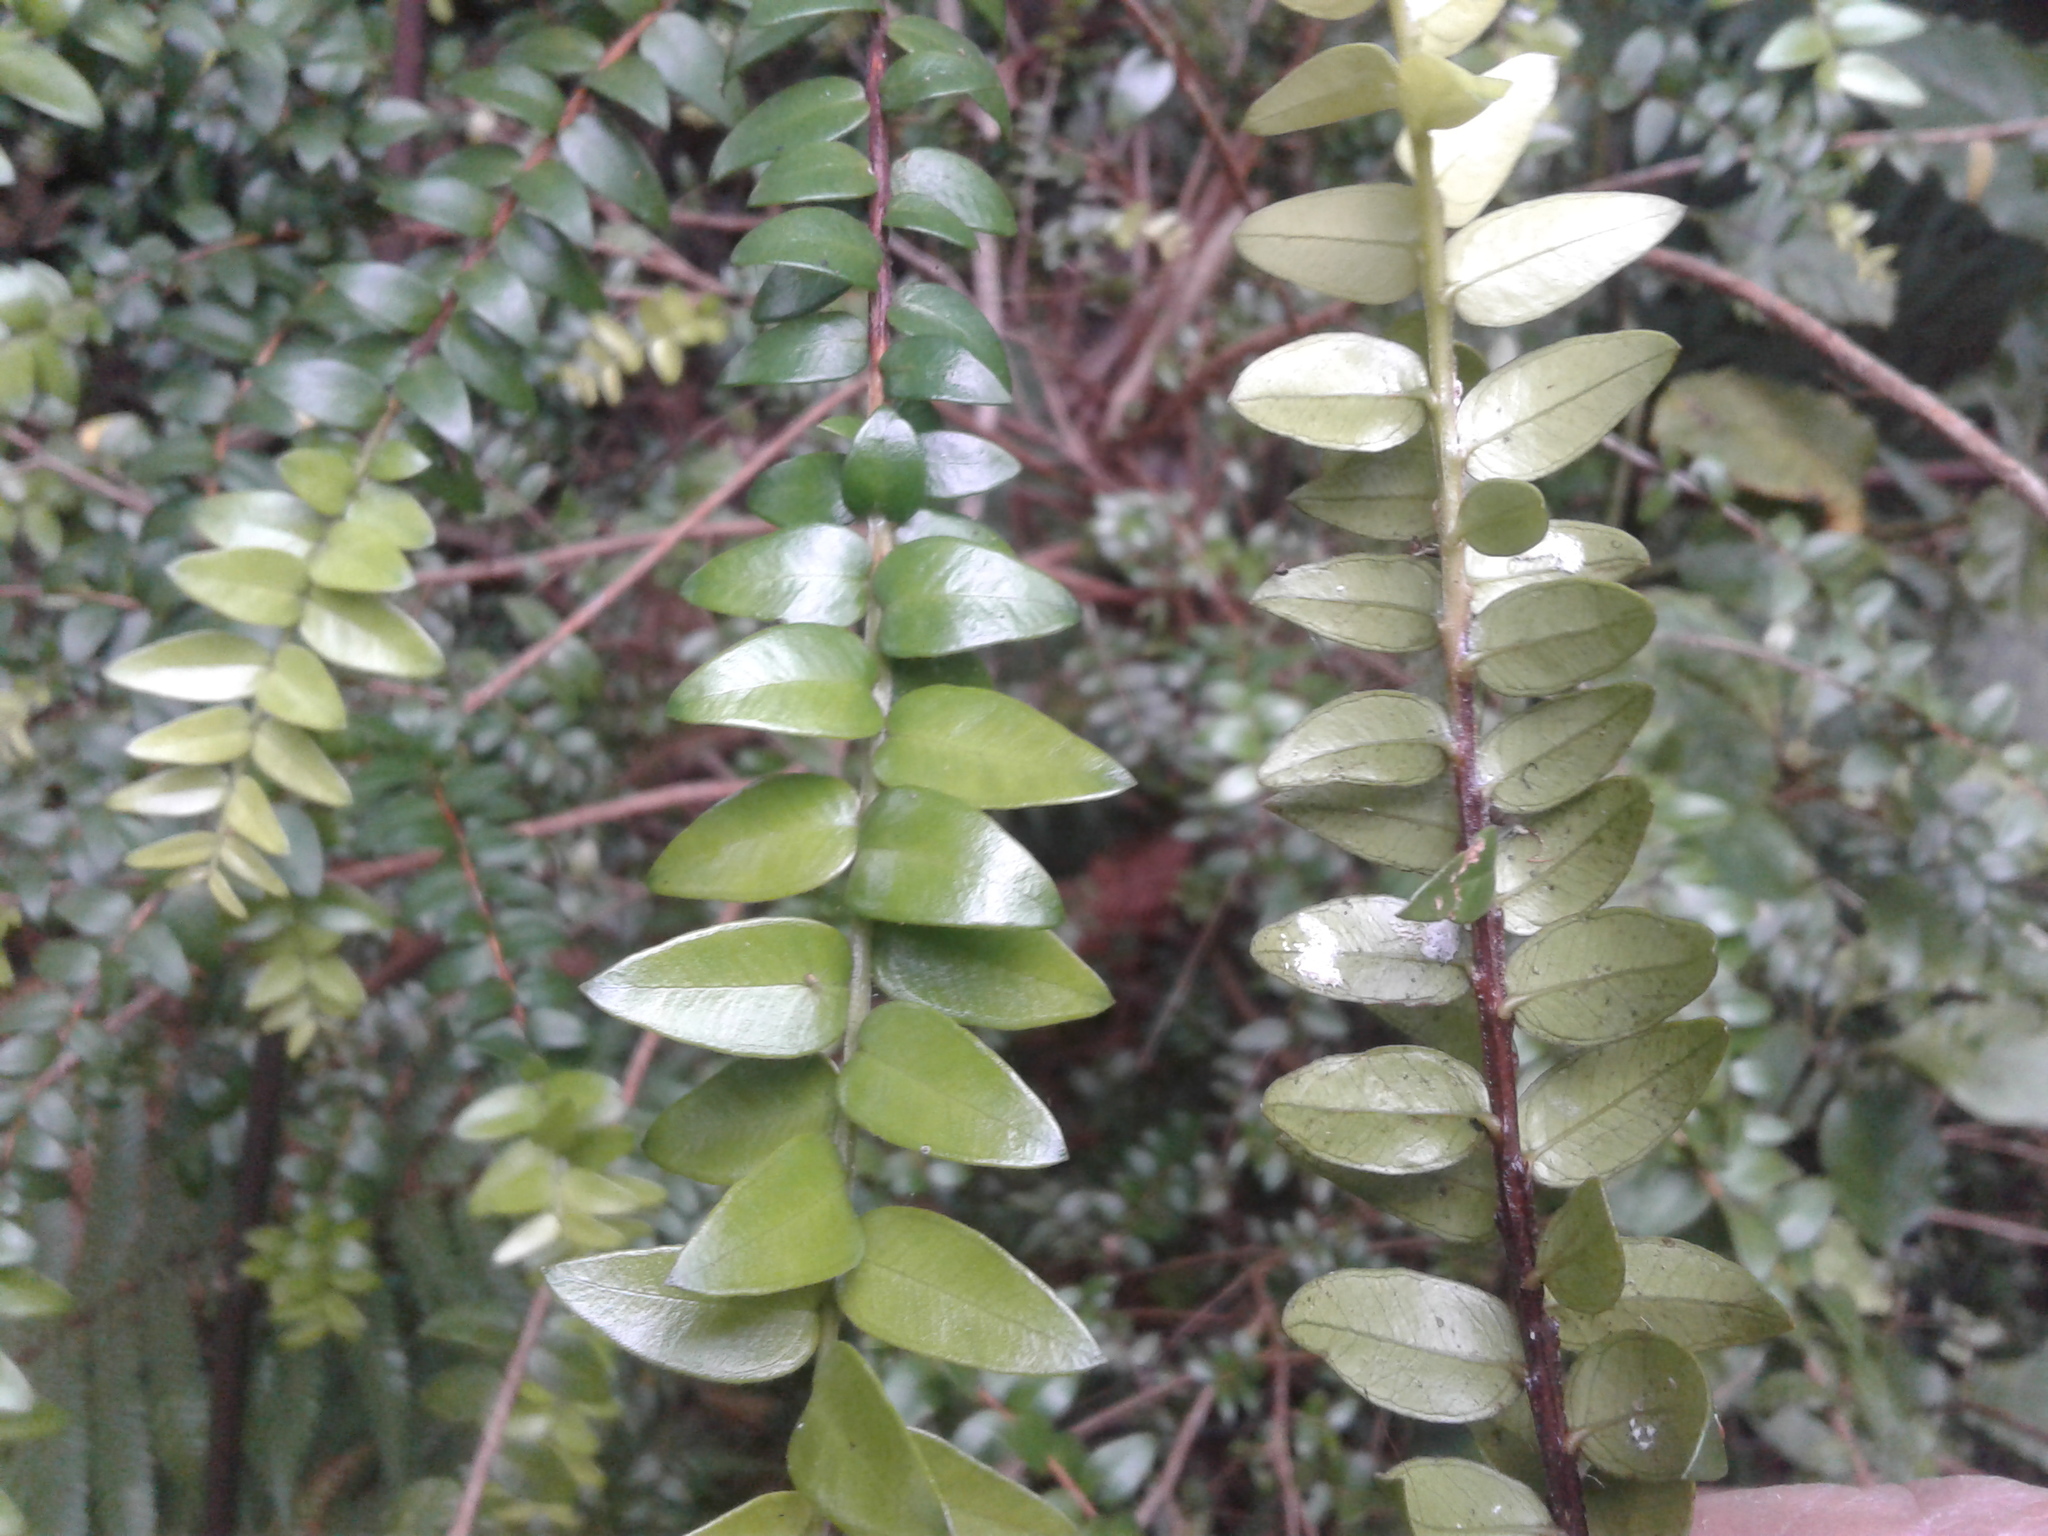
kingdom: Plantae
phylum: Tracheophyta
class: Magnoliopsida
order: Myrtales
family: Myrtaceae
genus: Metrosideros
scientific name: Metrosideros diffusa
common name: Small ratavine
